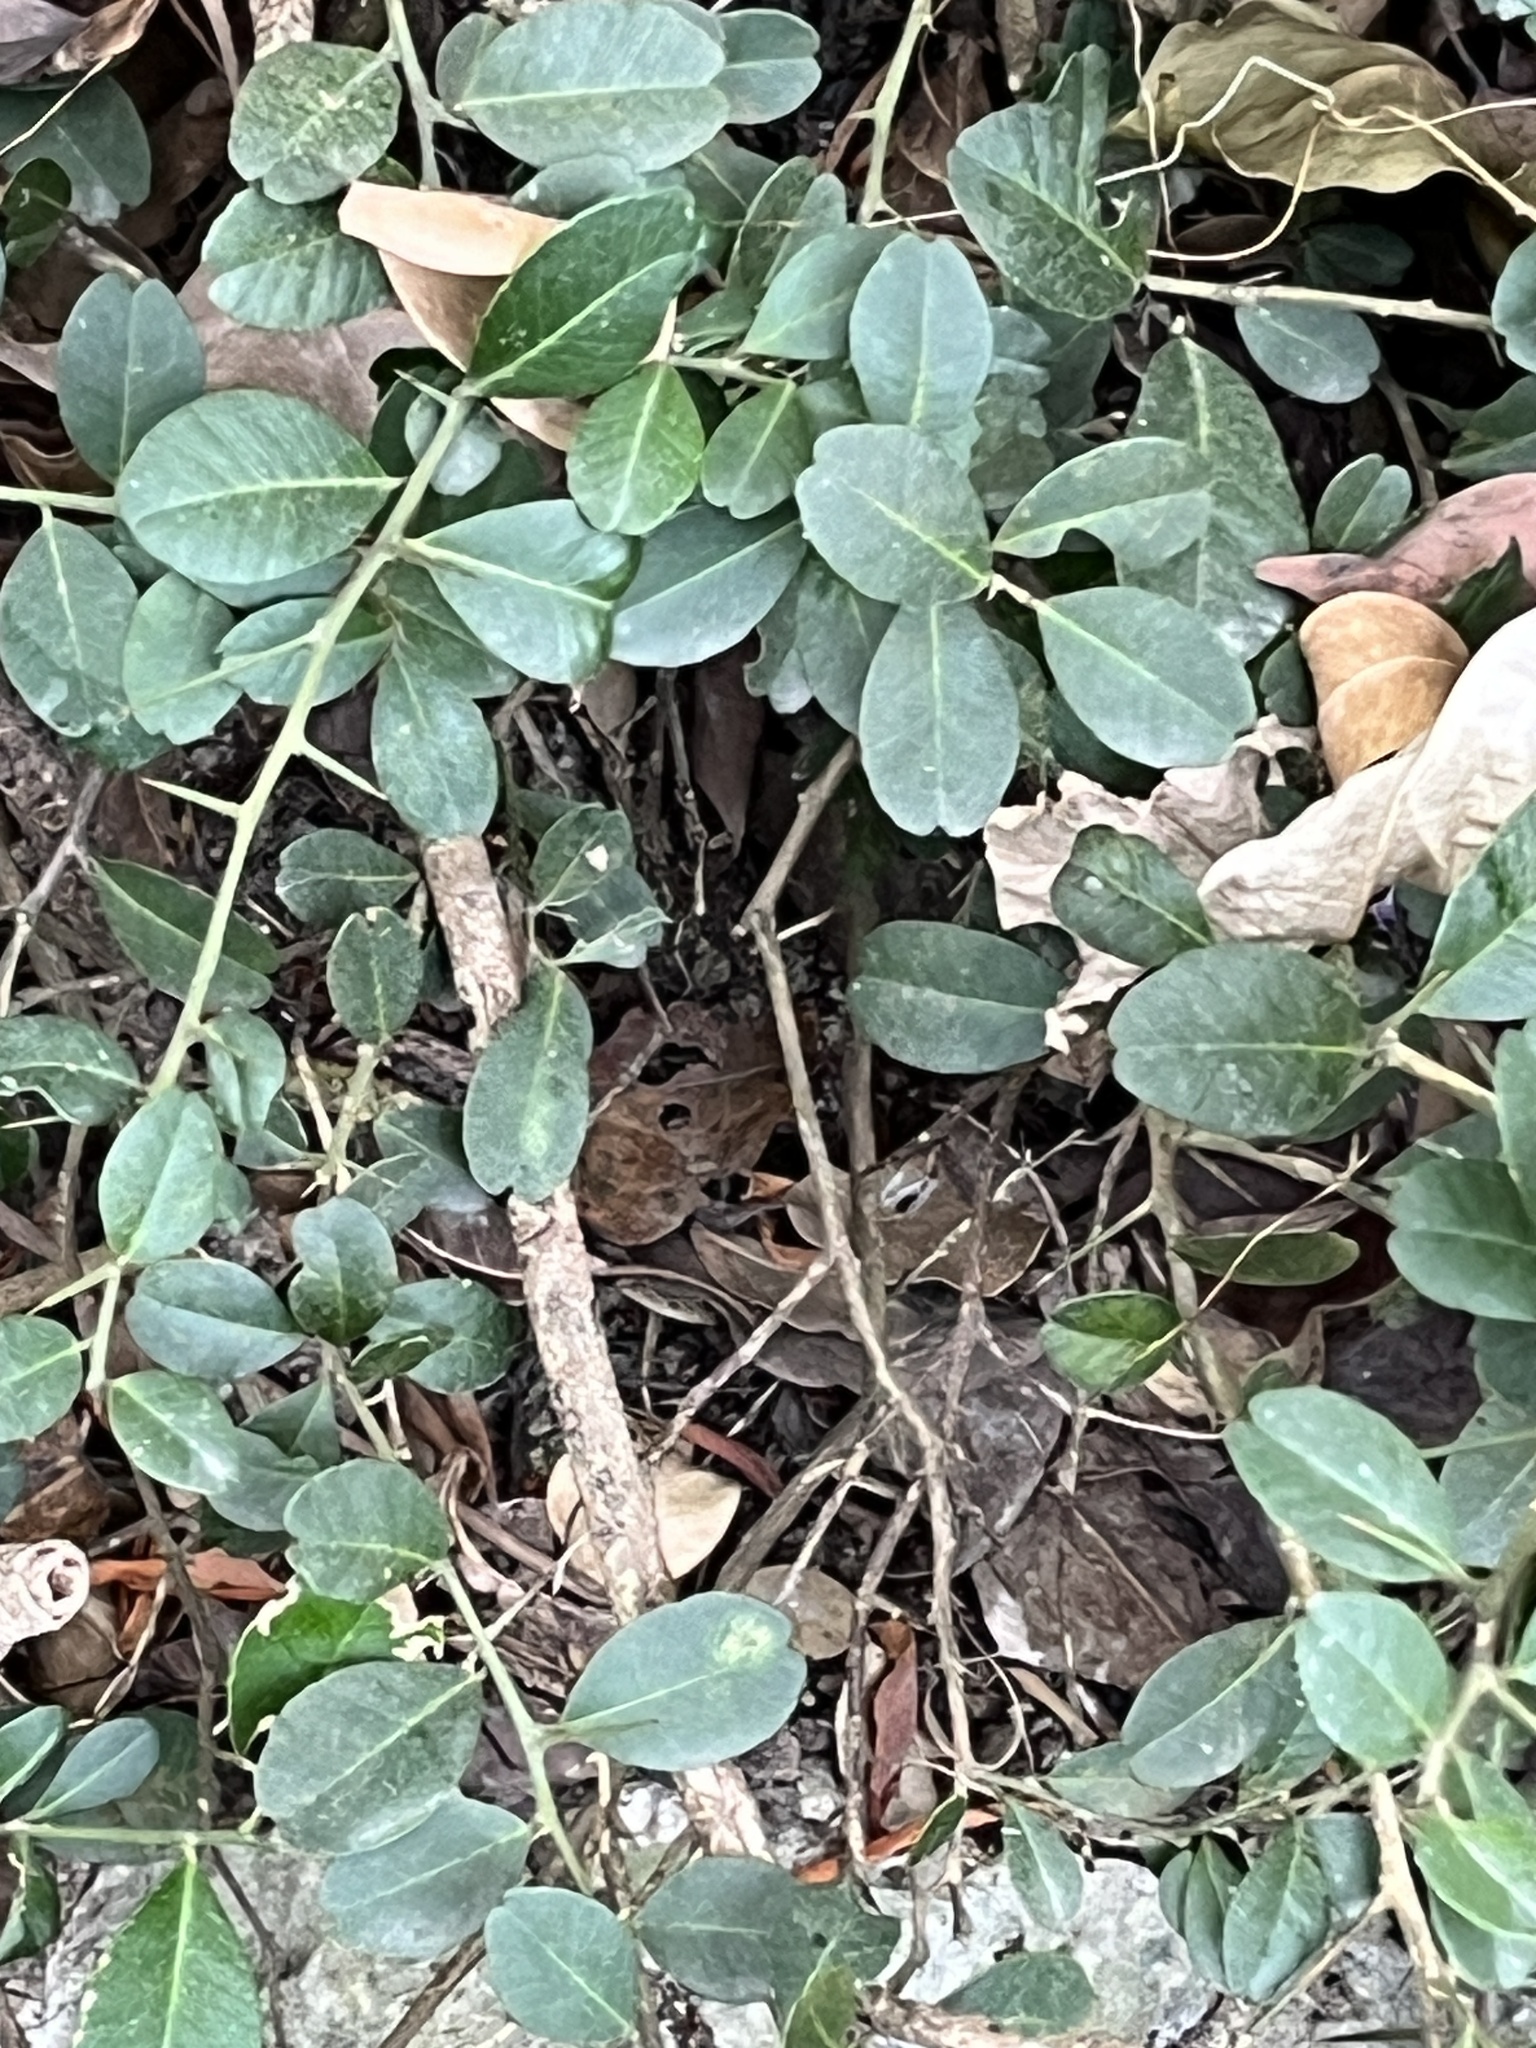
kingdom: Plantae
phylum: Tracheophyta
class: Magnoliopsida
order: Sapindales
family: Rutaceae
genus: Atalantia
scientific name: Atalantia buxifolia
